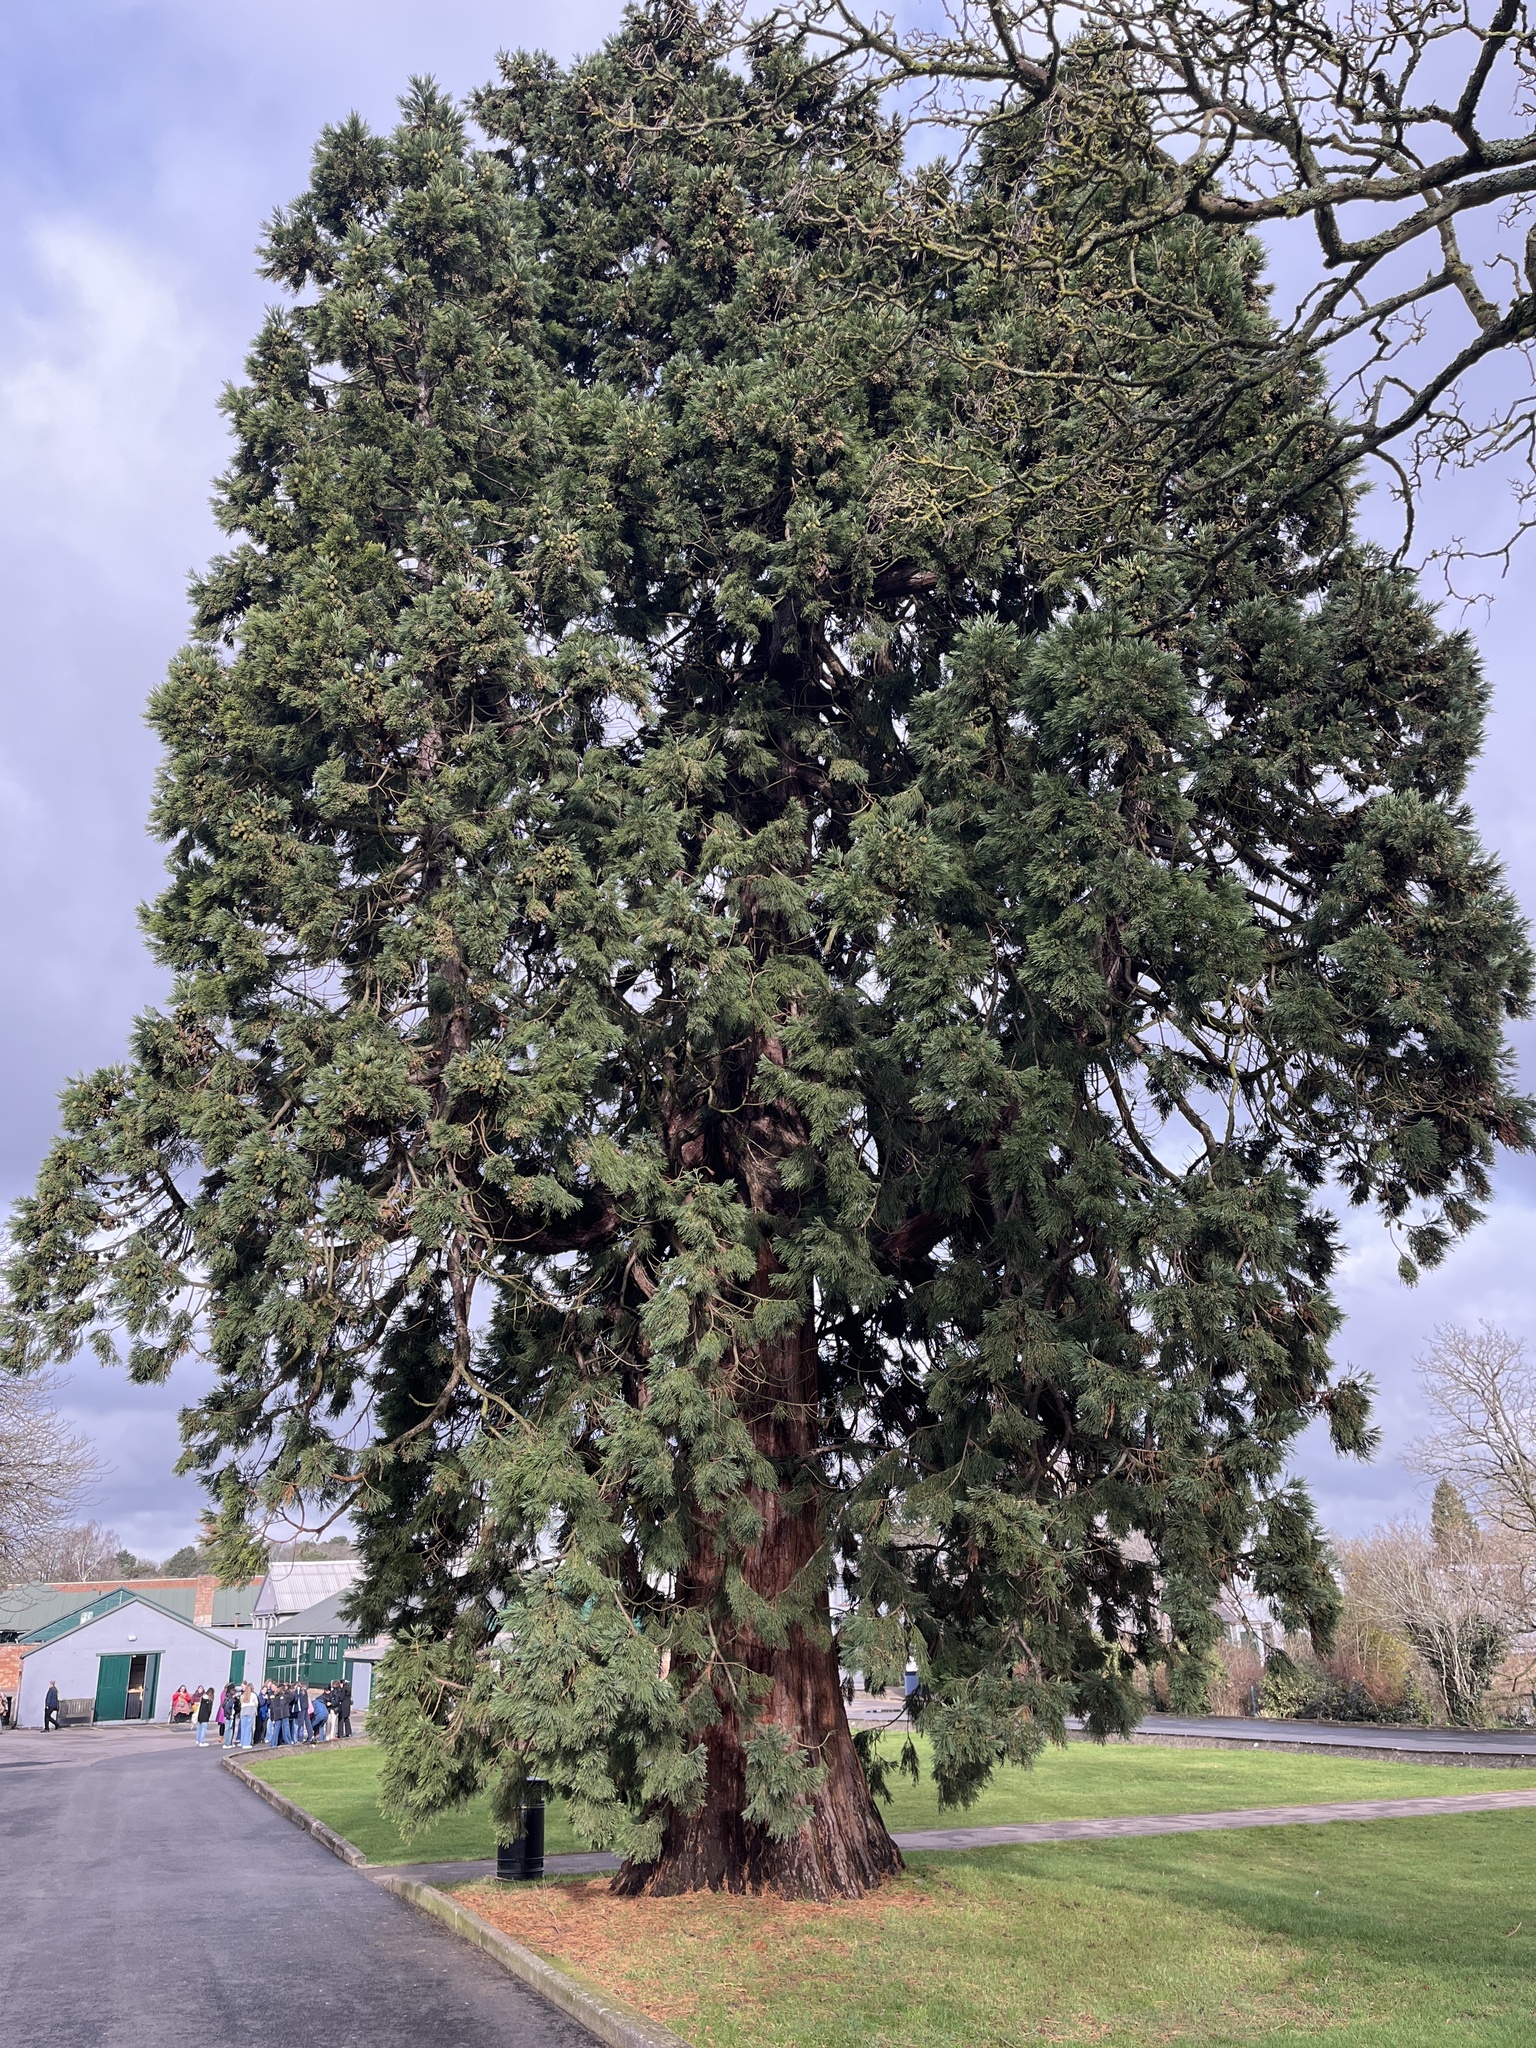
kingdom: Plantae
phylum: Tracheophyta
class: Pinopsida
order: Pinales
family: Cupressaceae
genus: Sequoiadendron
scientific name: Sequoiadendron giganteum
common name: Wellingtonia
